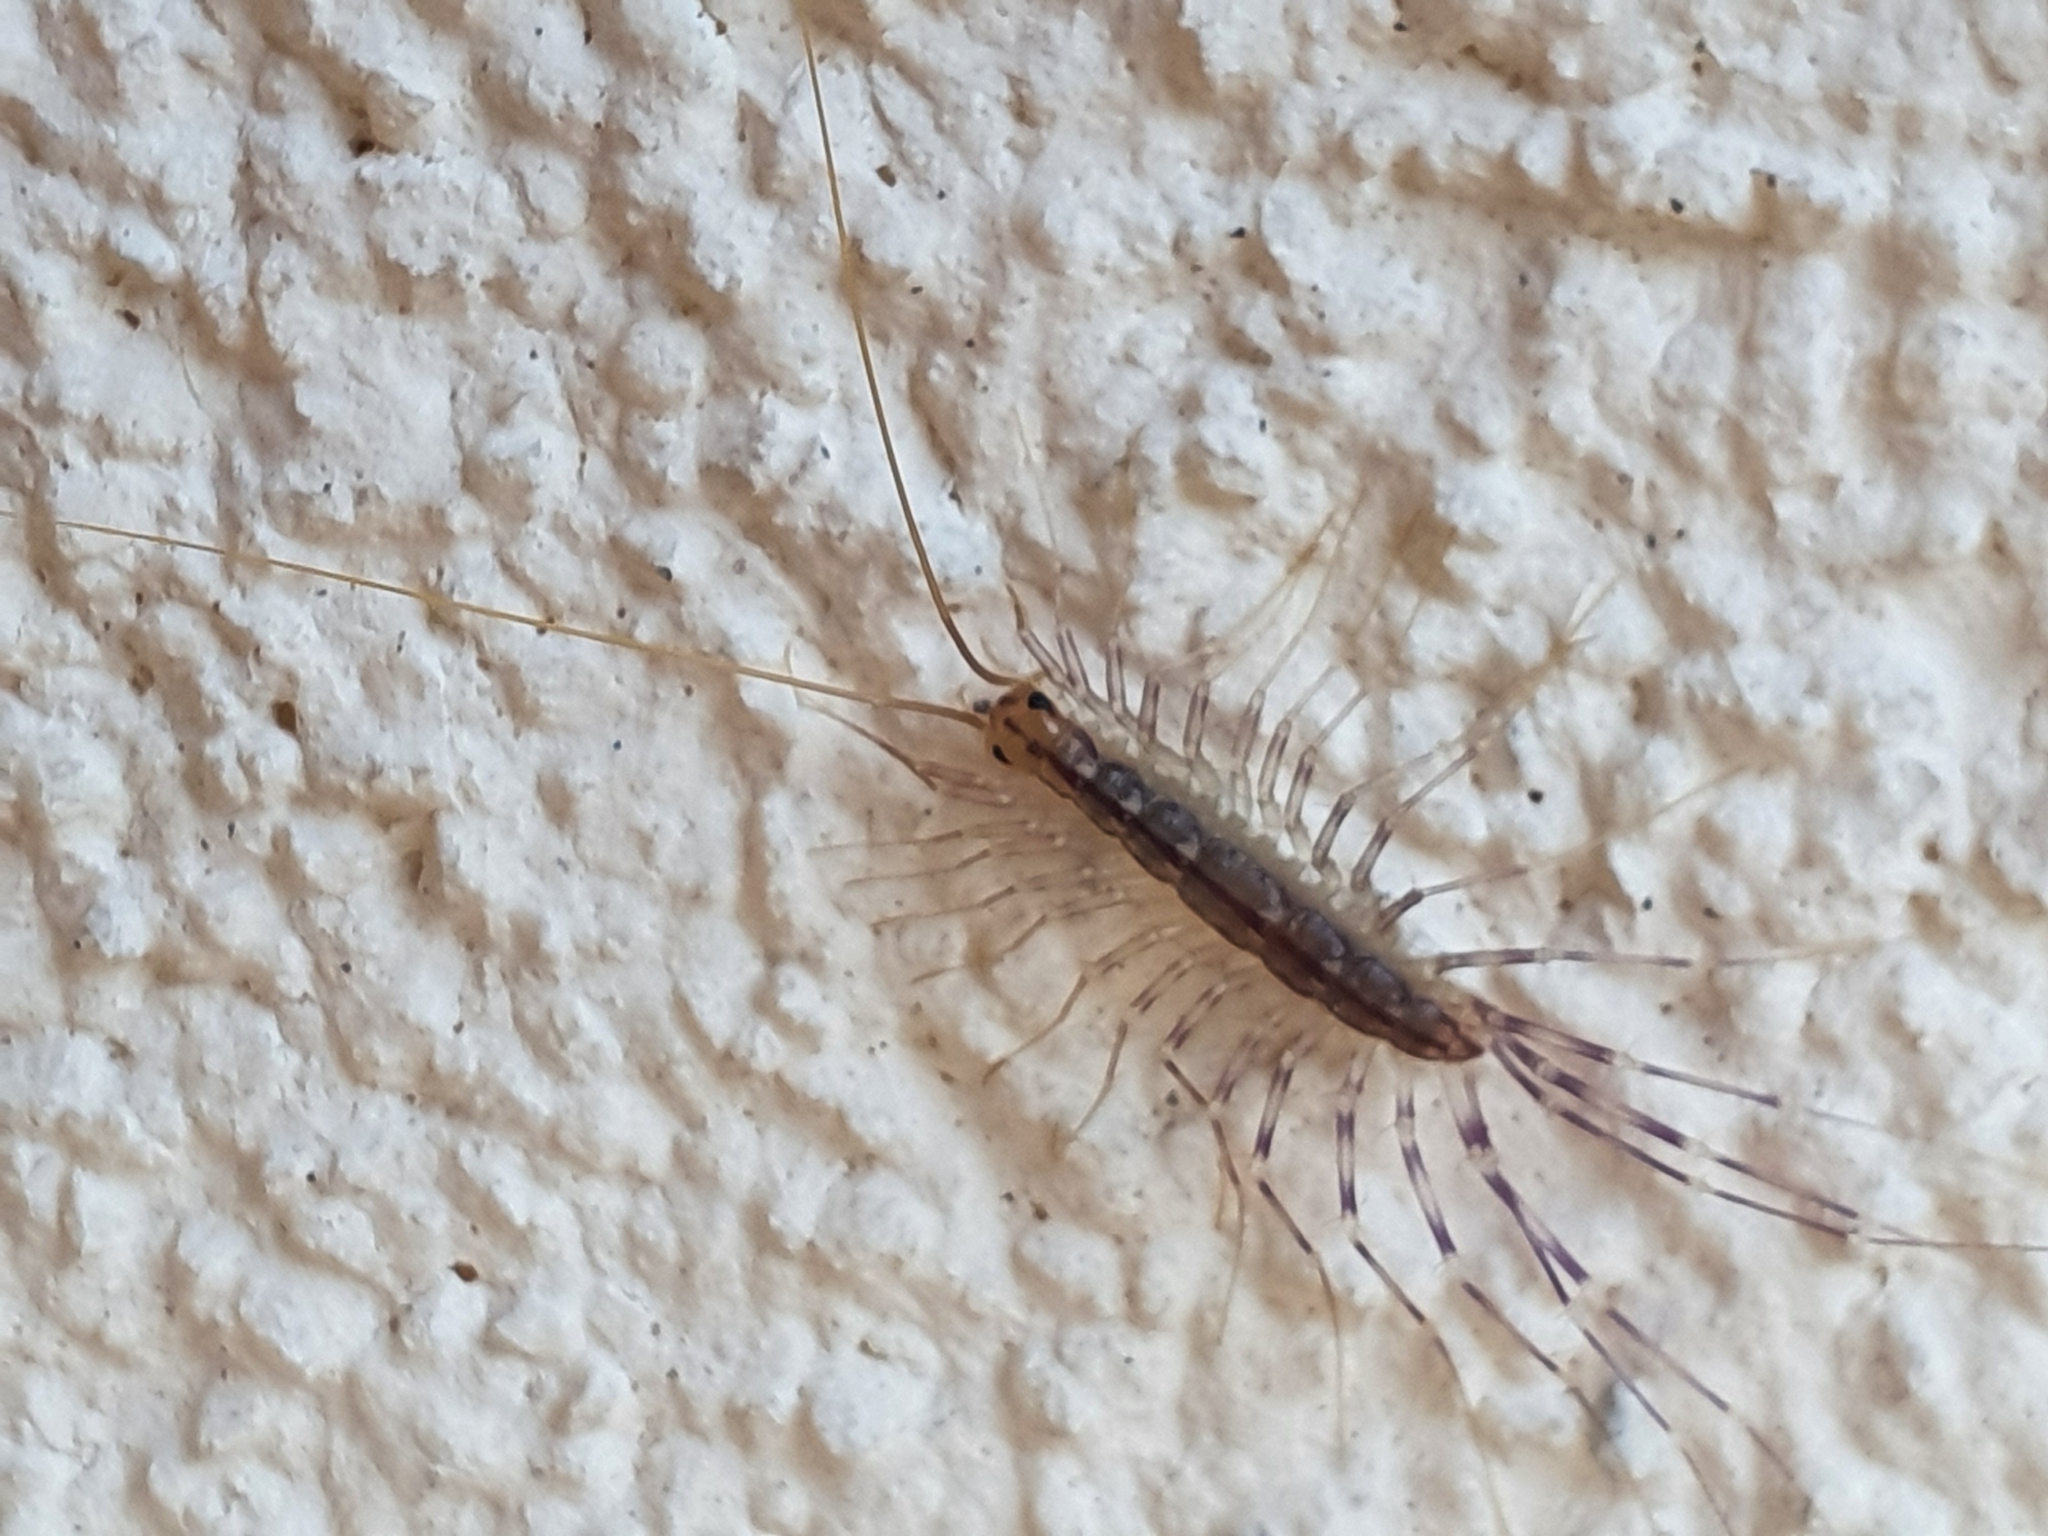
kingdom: Animalia
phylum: Arthropoda
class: Chilopoda
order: Scutigeromorpha
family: Scutigeridae
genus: Scutigera
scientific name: Scutigera coleoptrata
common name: House centipede
